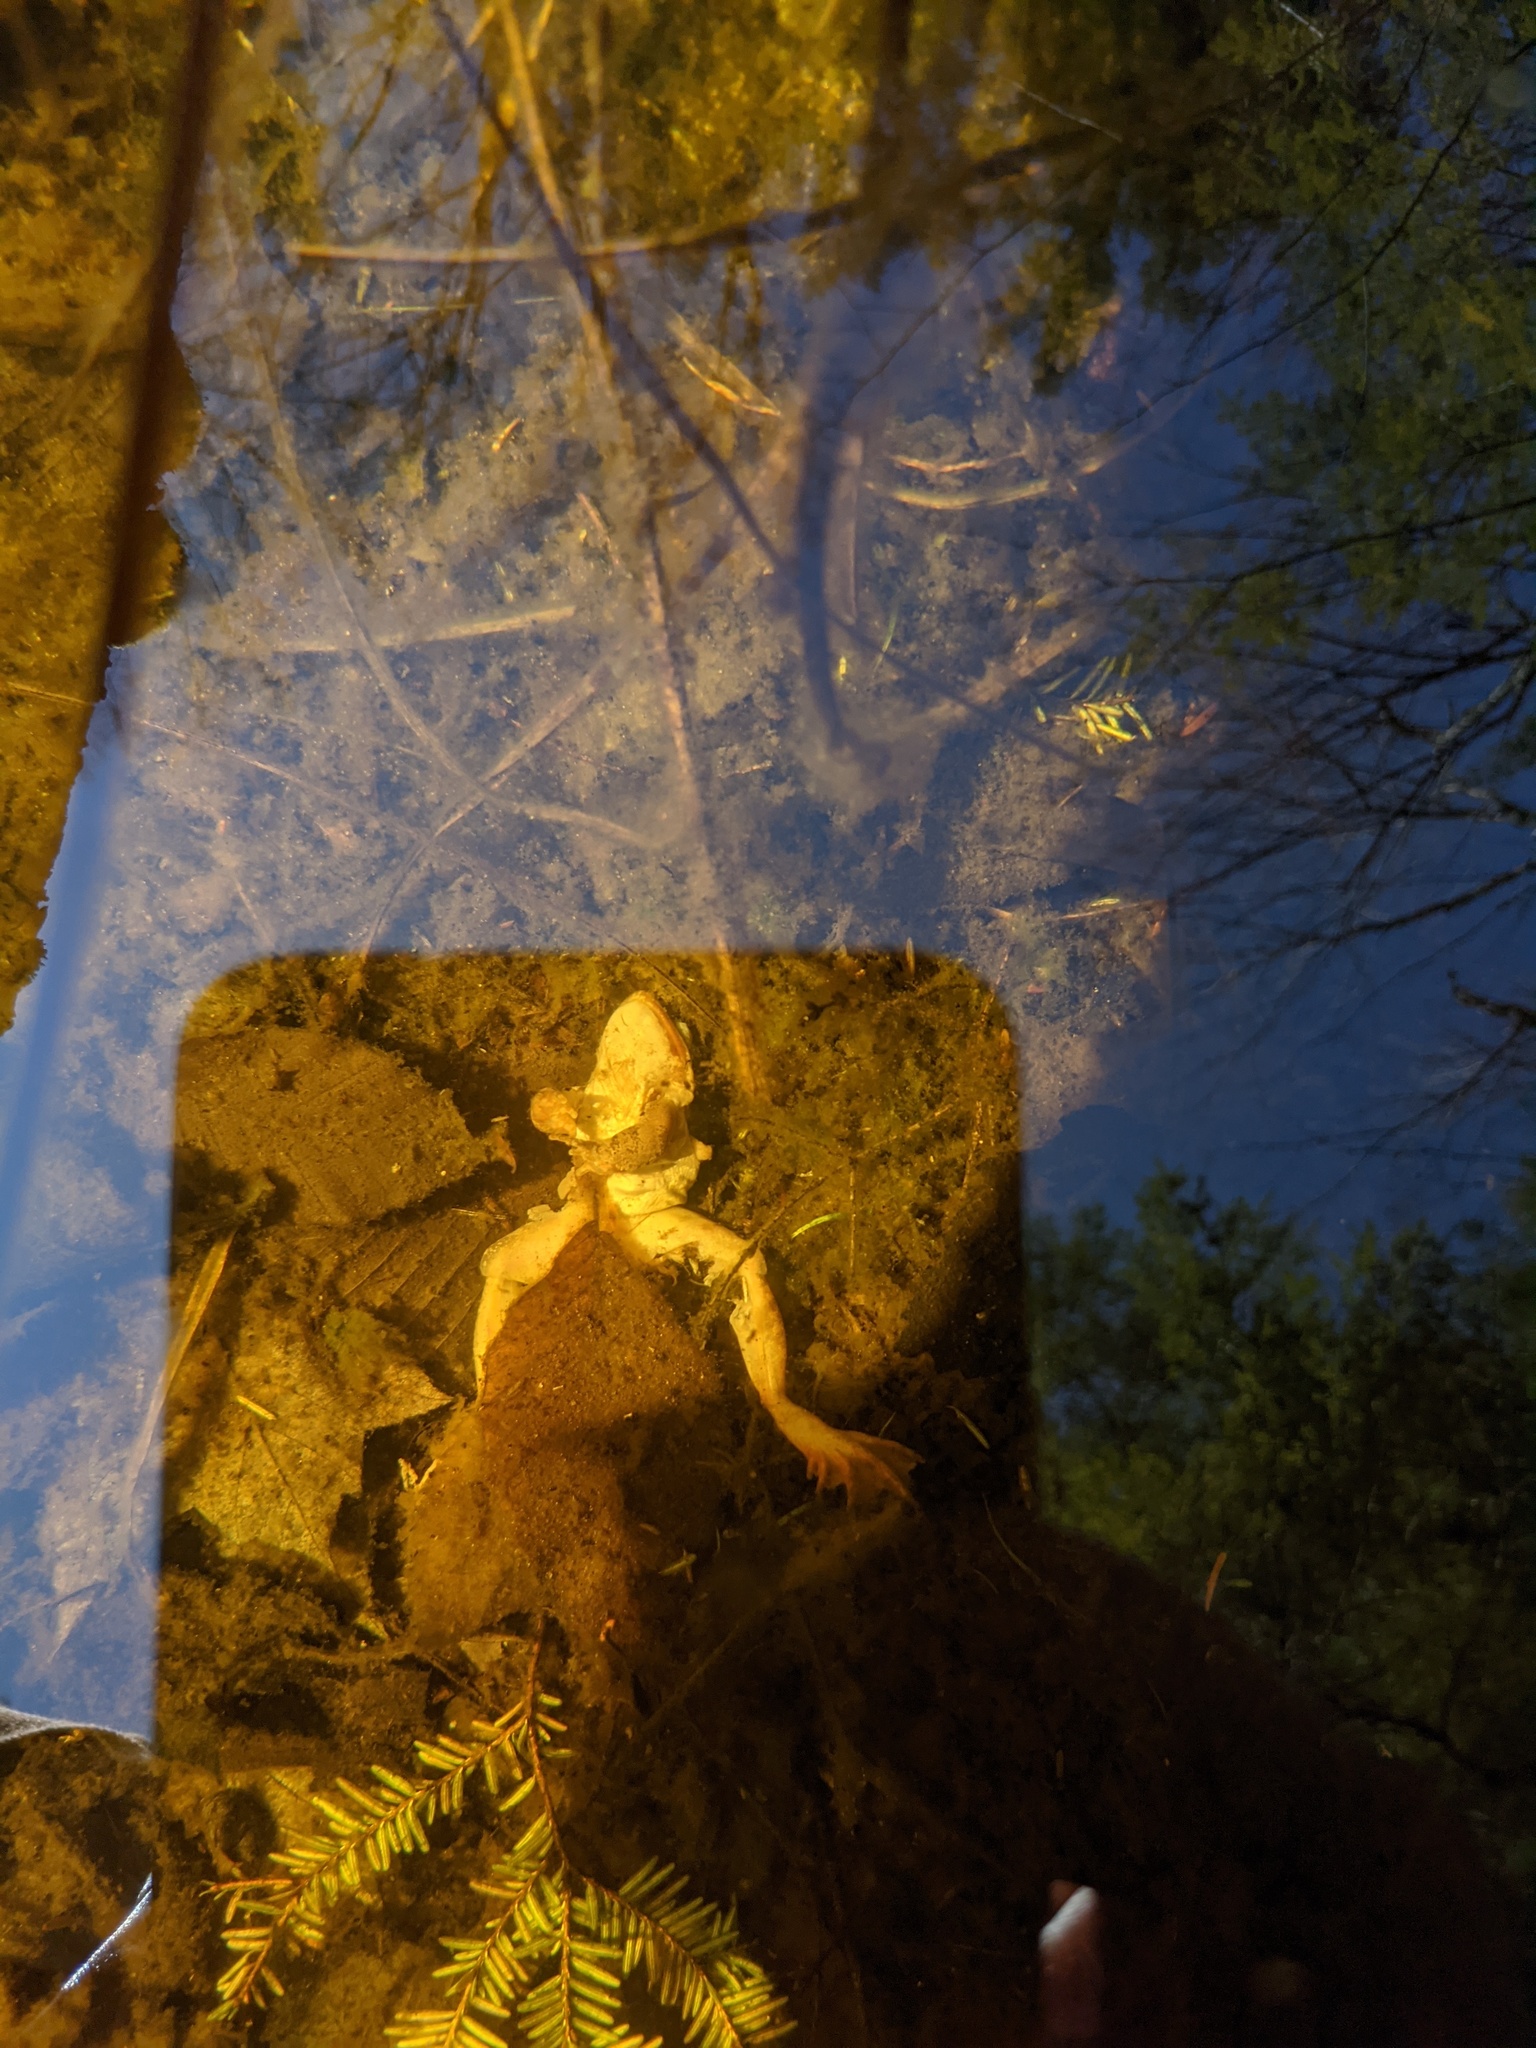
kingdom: Animalia
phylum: Chordata
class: Amphibia
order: Anura
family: Ranidae
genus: Lithobates
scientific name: Lithobates sylvaticus
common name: Wood frog
